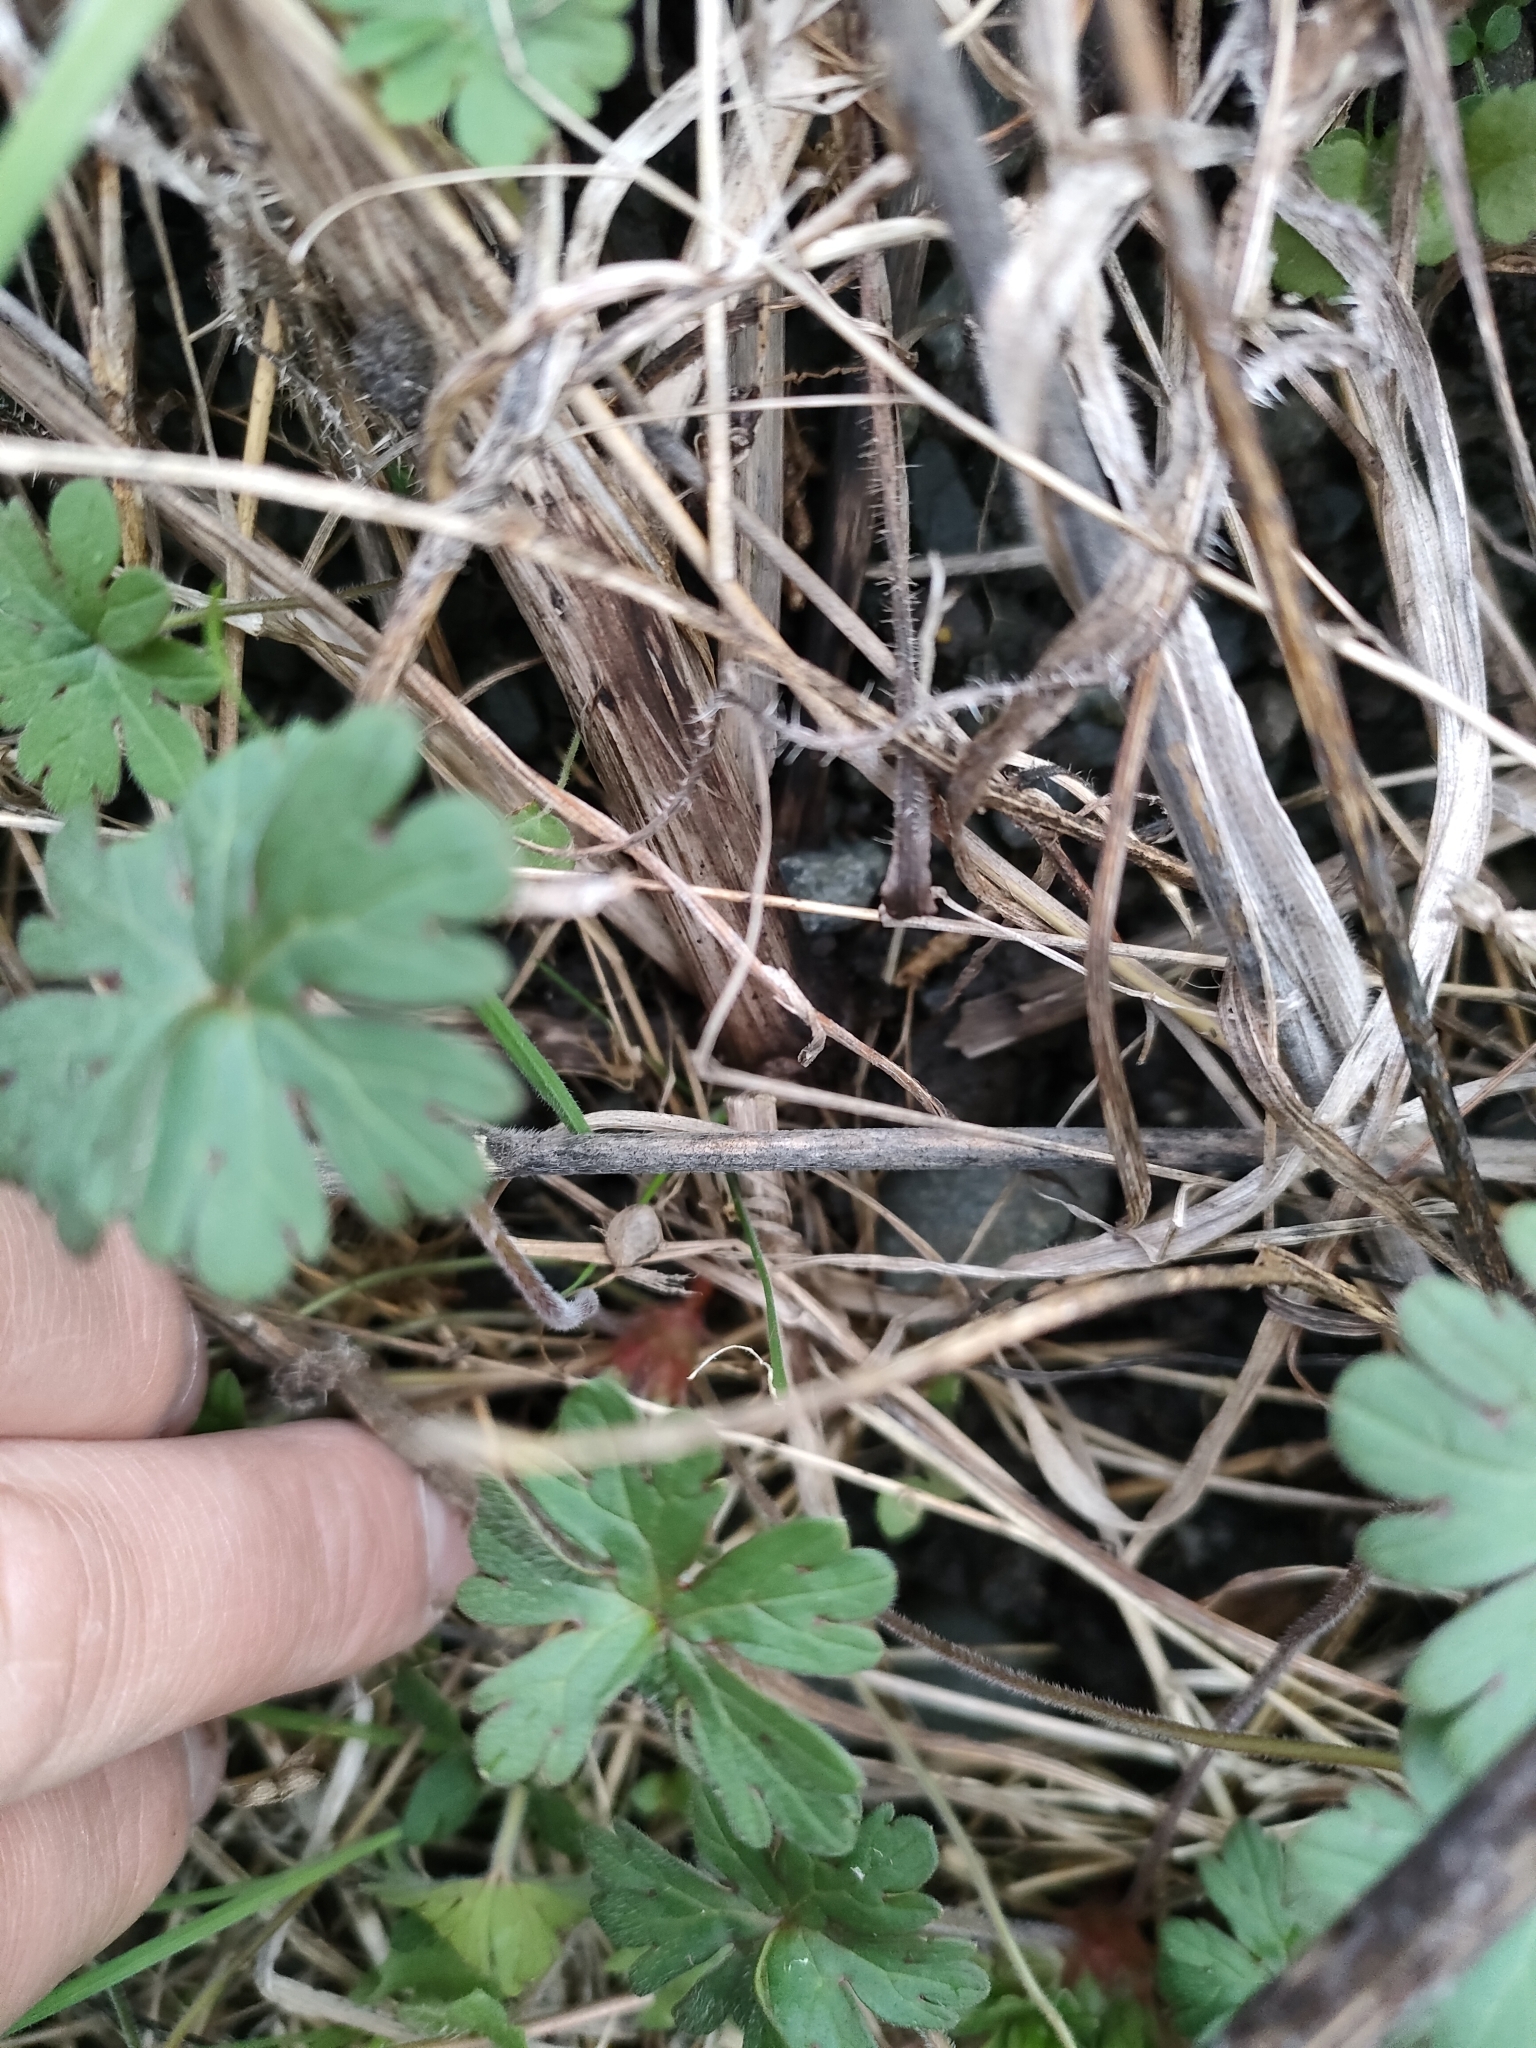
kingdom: Plantae
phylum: Tracheophyta
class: Magnoliopsida
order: Geraniales
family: Geraniaceae
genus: Geranium
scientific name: Geranium dissectum
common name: Cut-leaved crane's-bill
